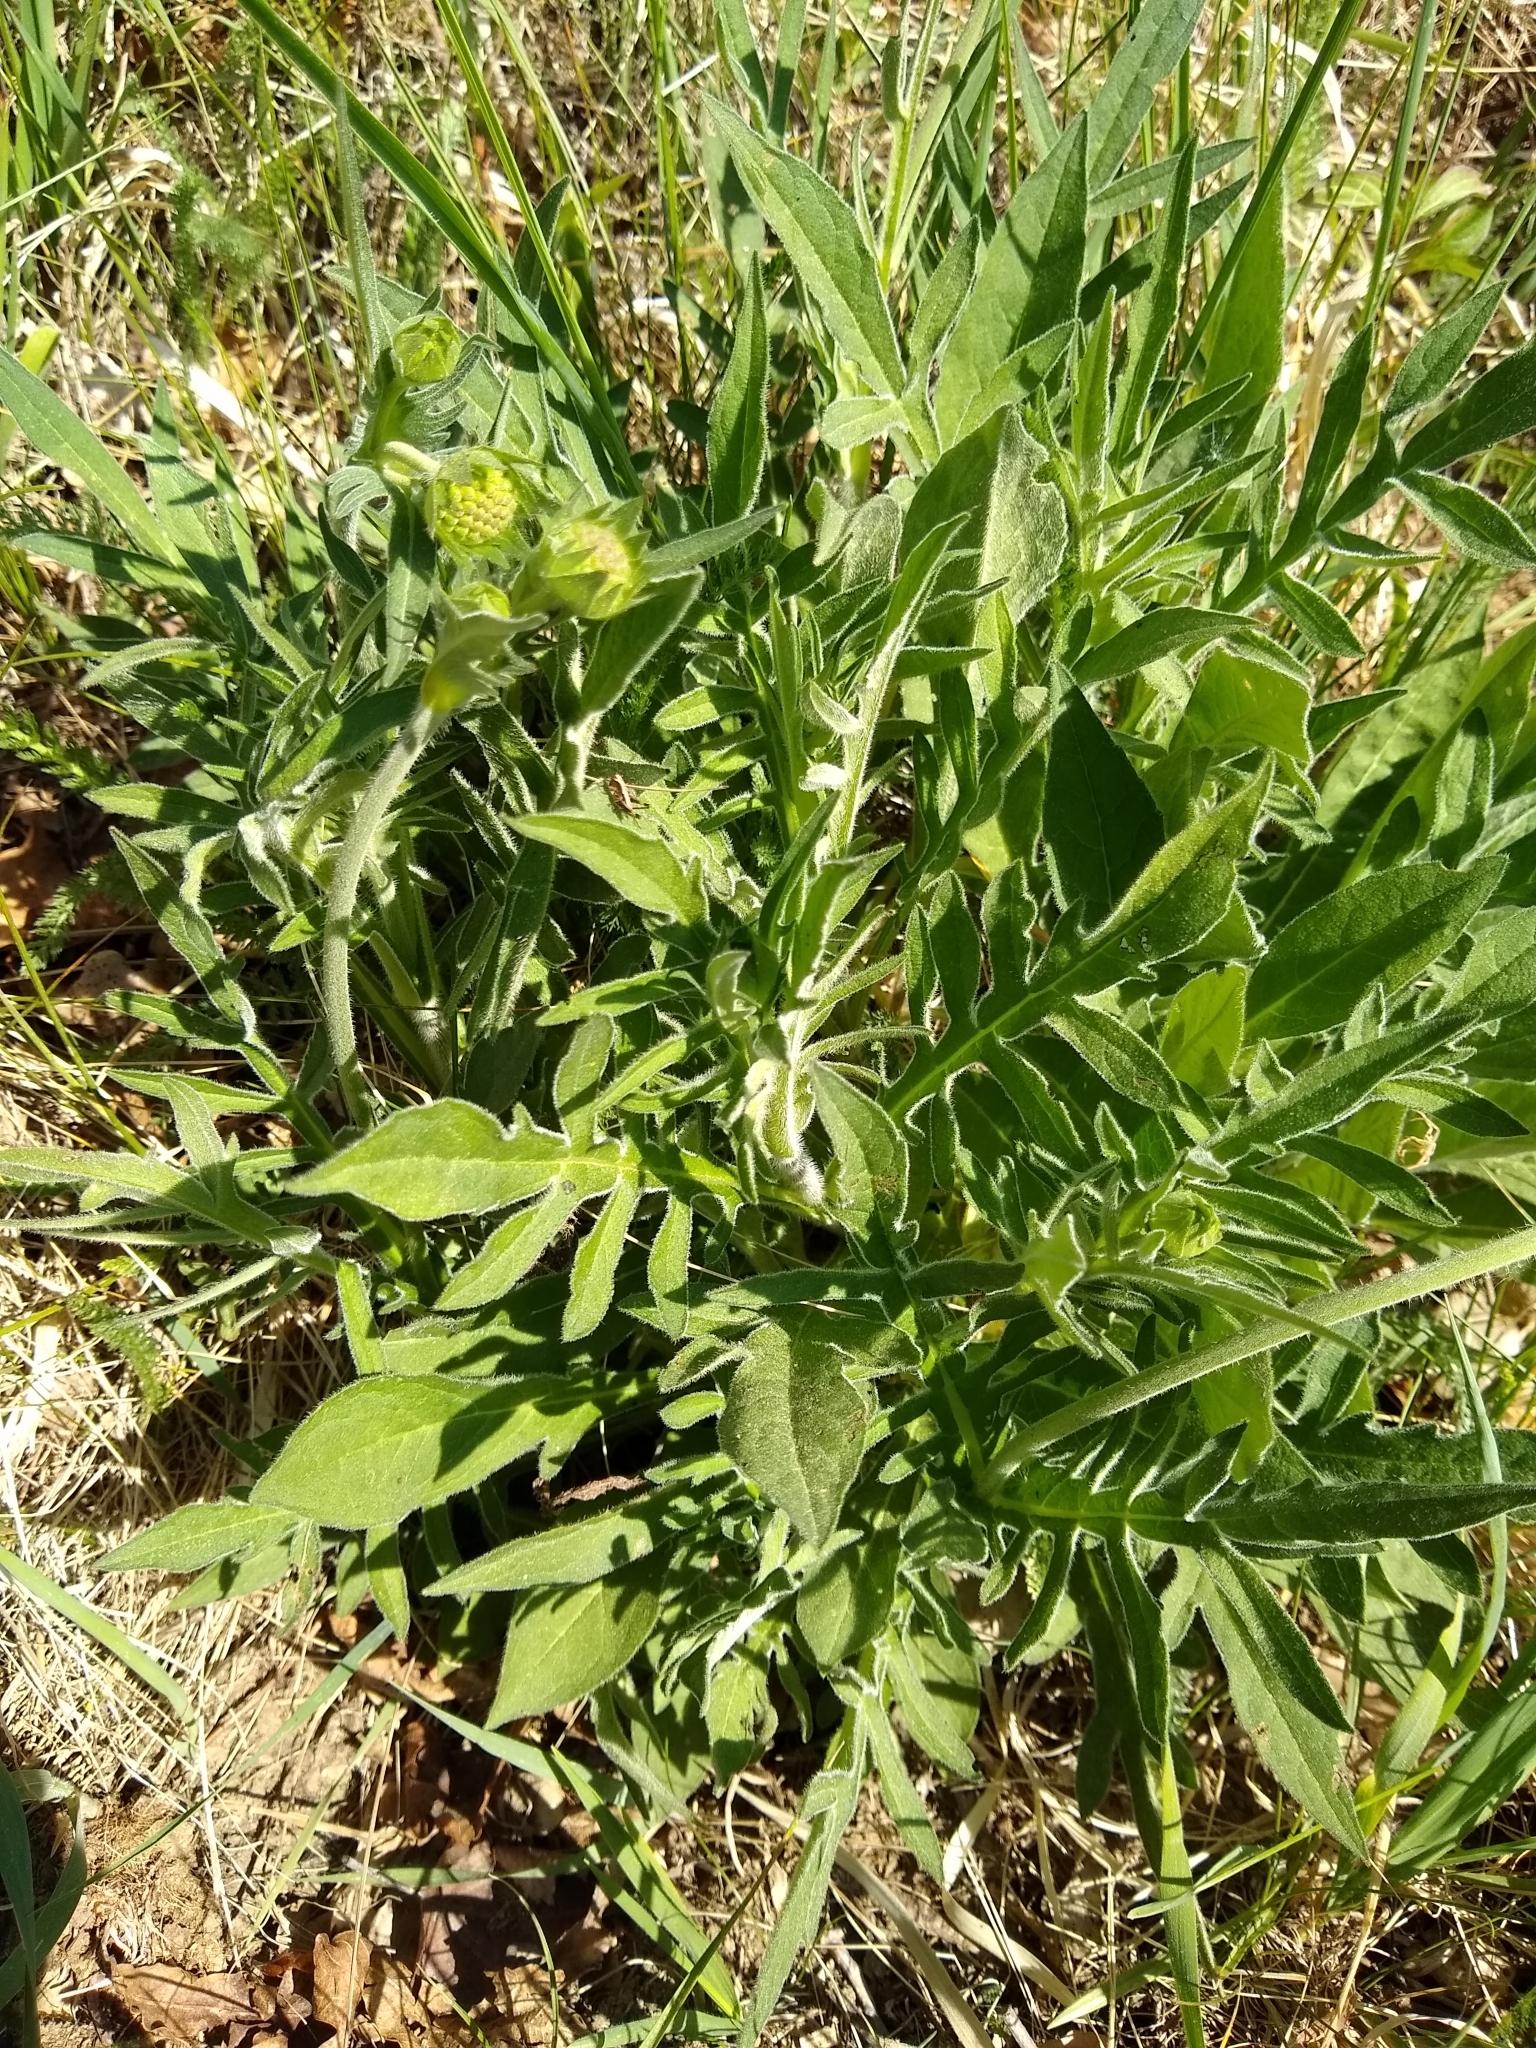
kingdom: Plantae
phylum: Tracheophyta
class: Magnoliopsida
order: Dipsacales
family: Caprifoliaceae
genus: Knautia
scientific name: Knautia arvensis
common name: Field scabiosa
